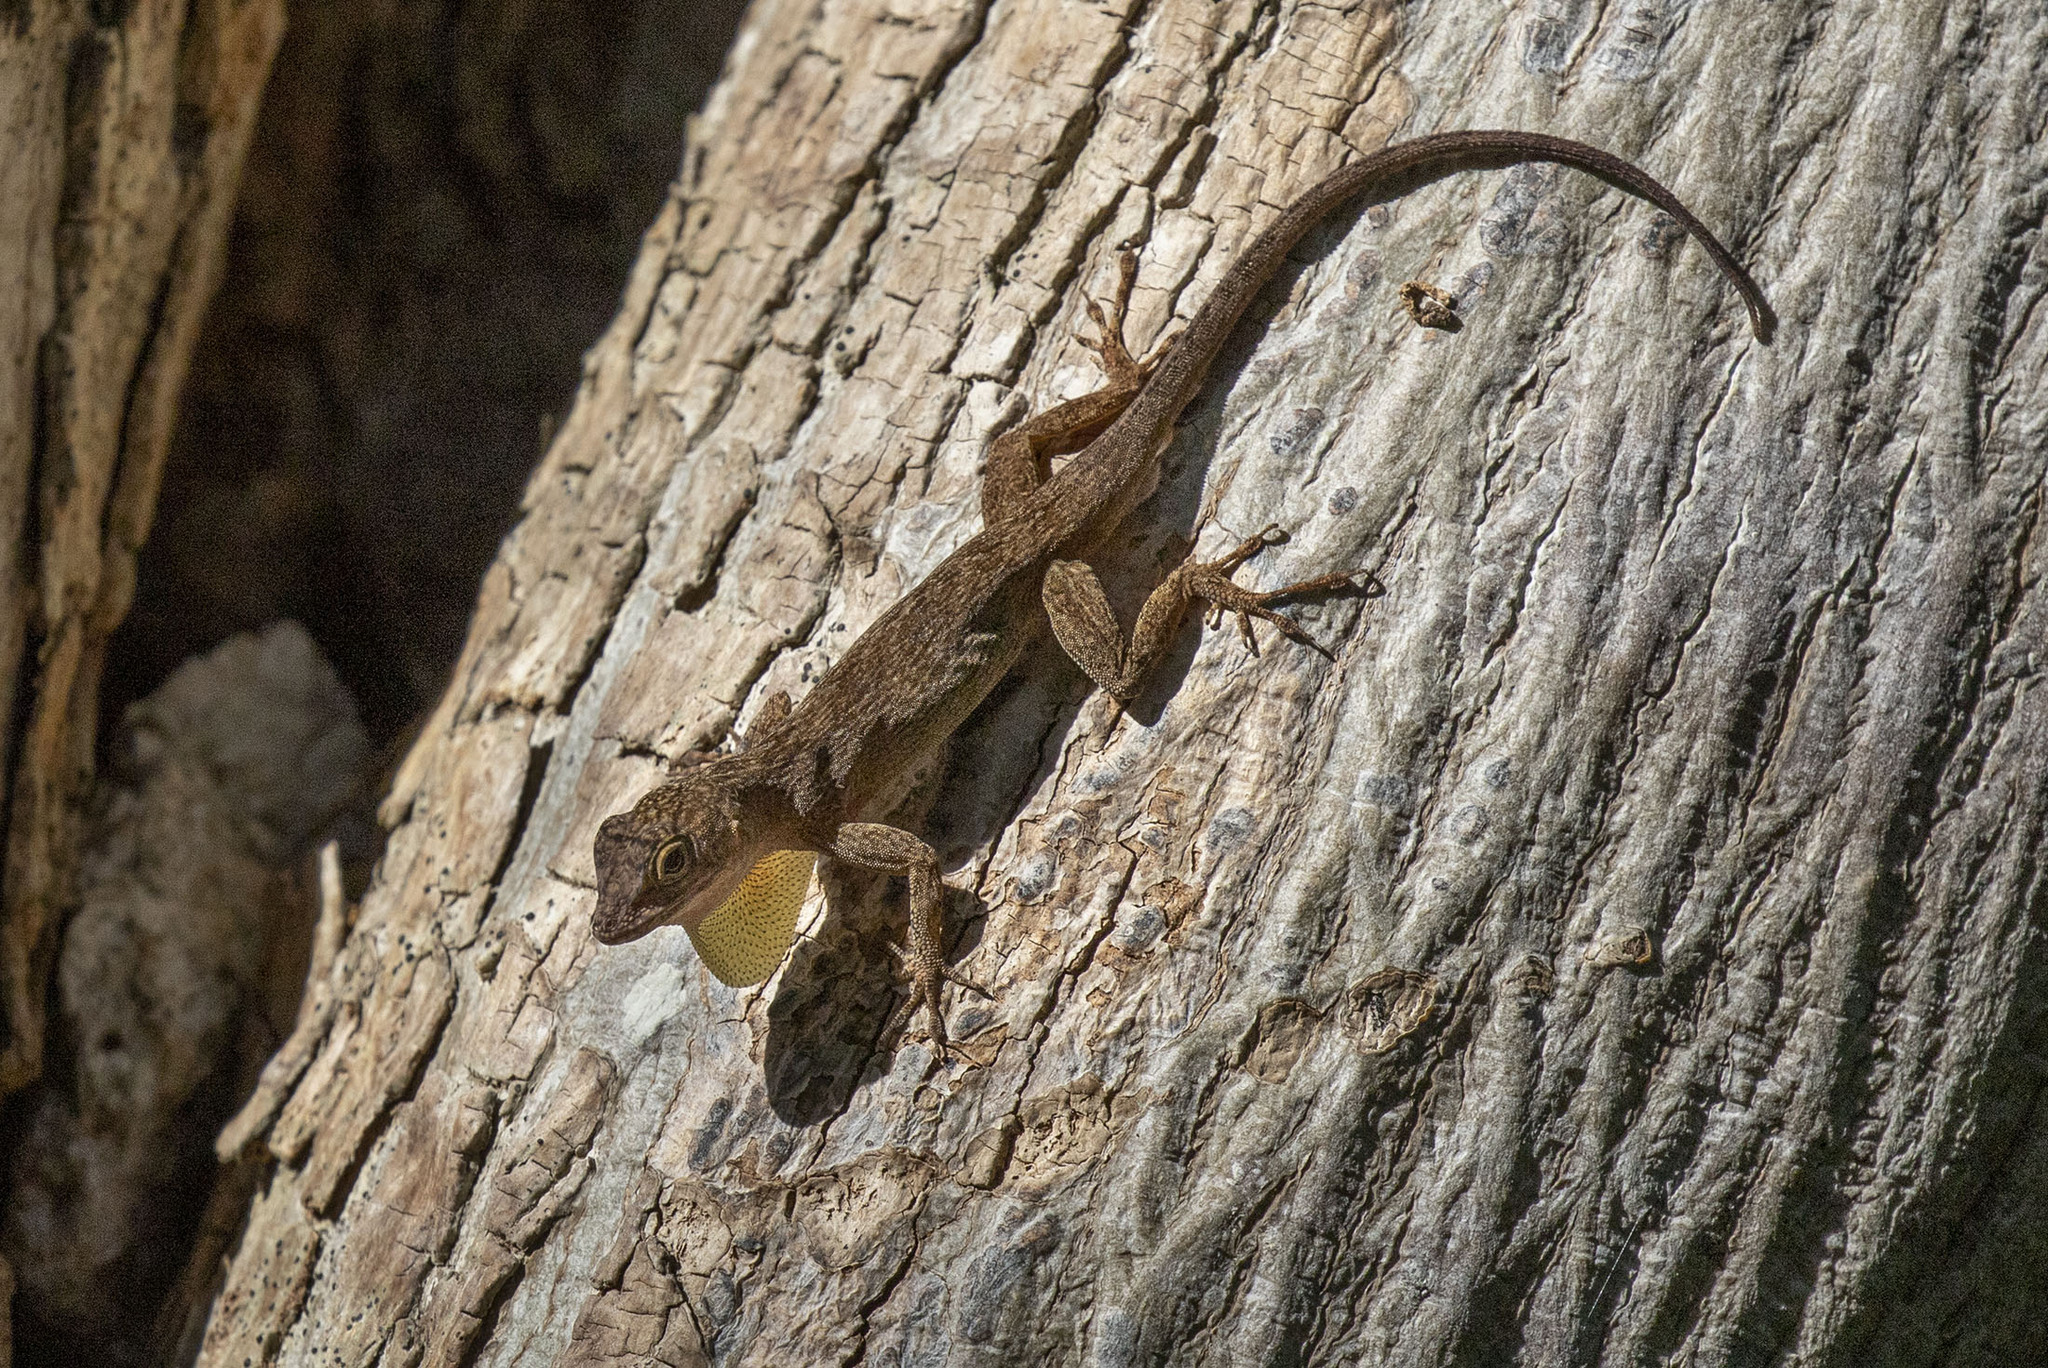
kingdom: Animalia
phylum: Chordata
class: Squamata
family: Dactyloidae
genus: Anolis
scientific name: Anolis distichus
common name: Bark anole
